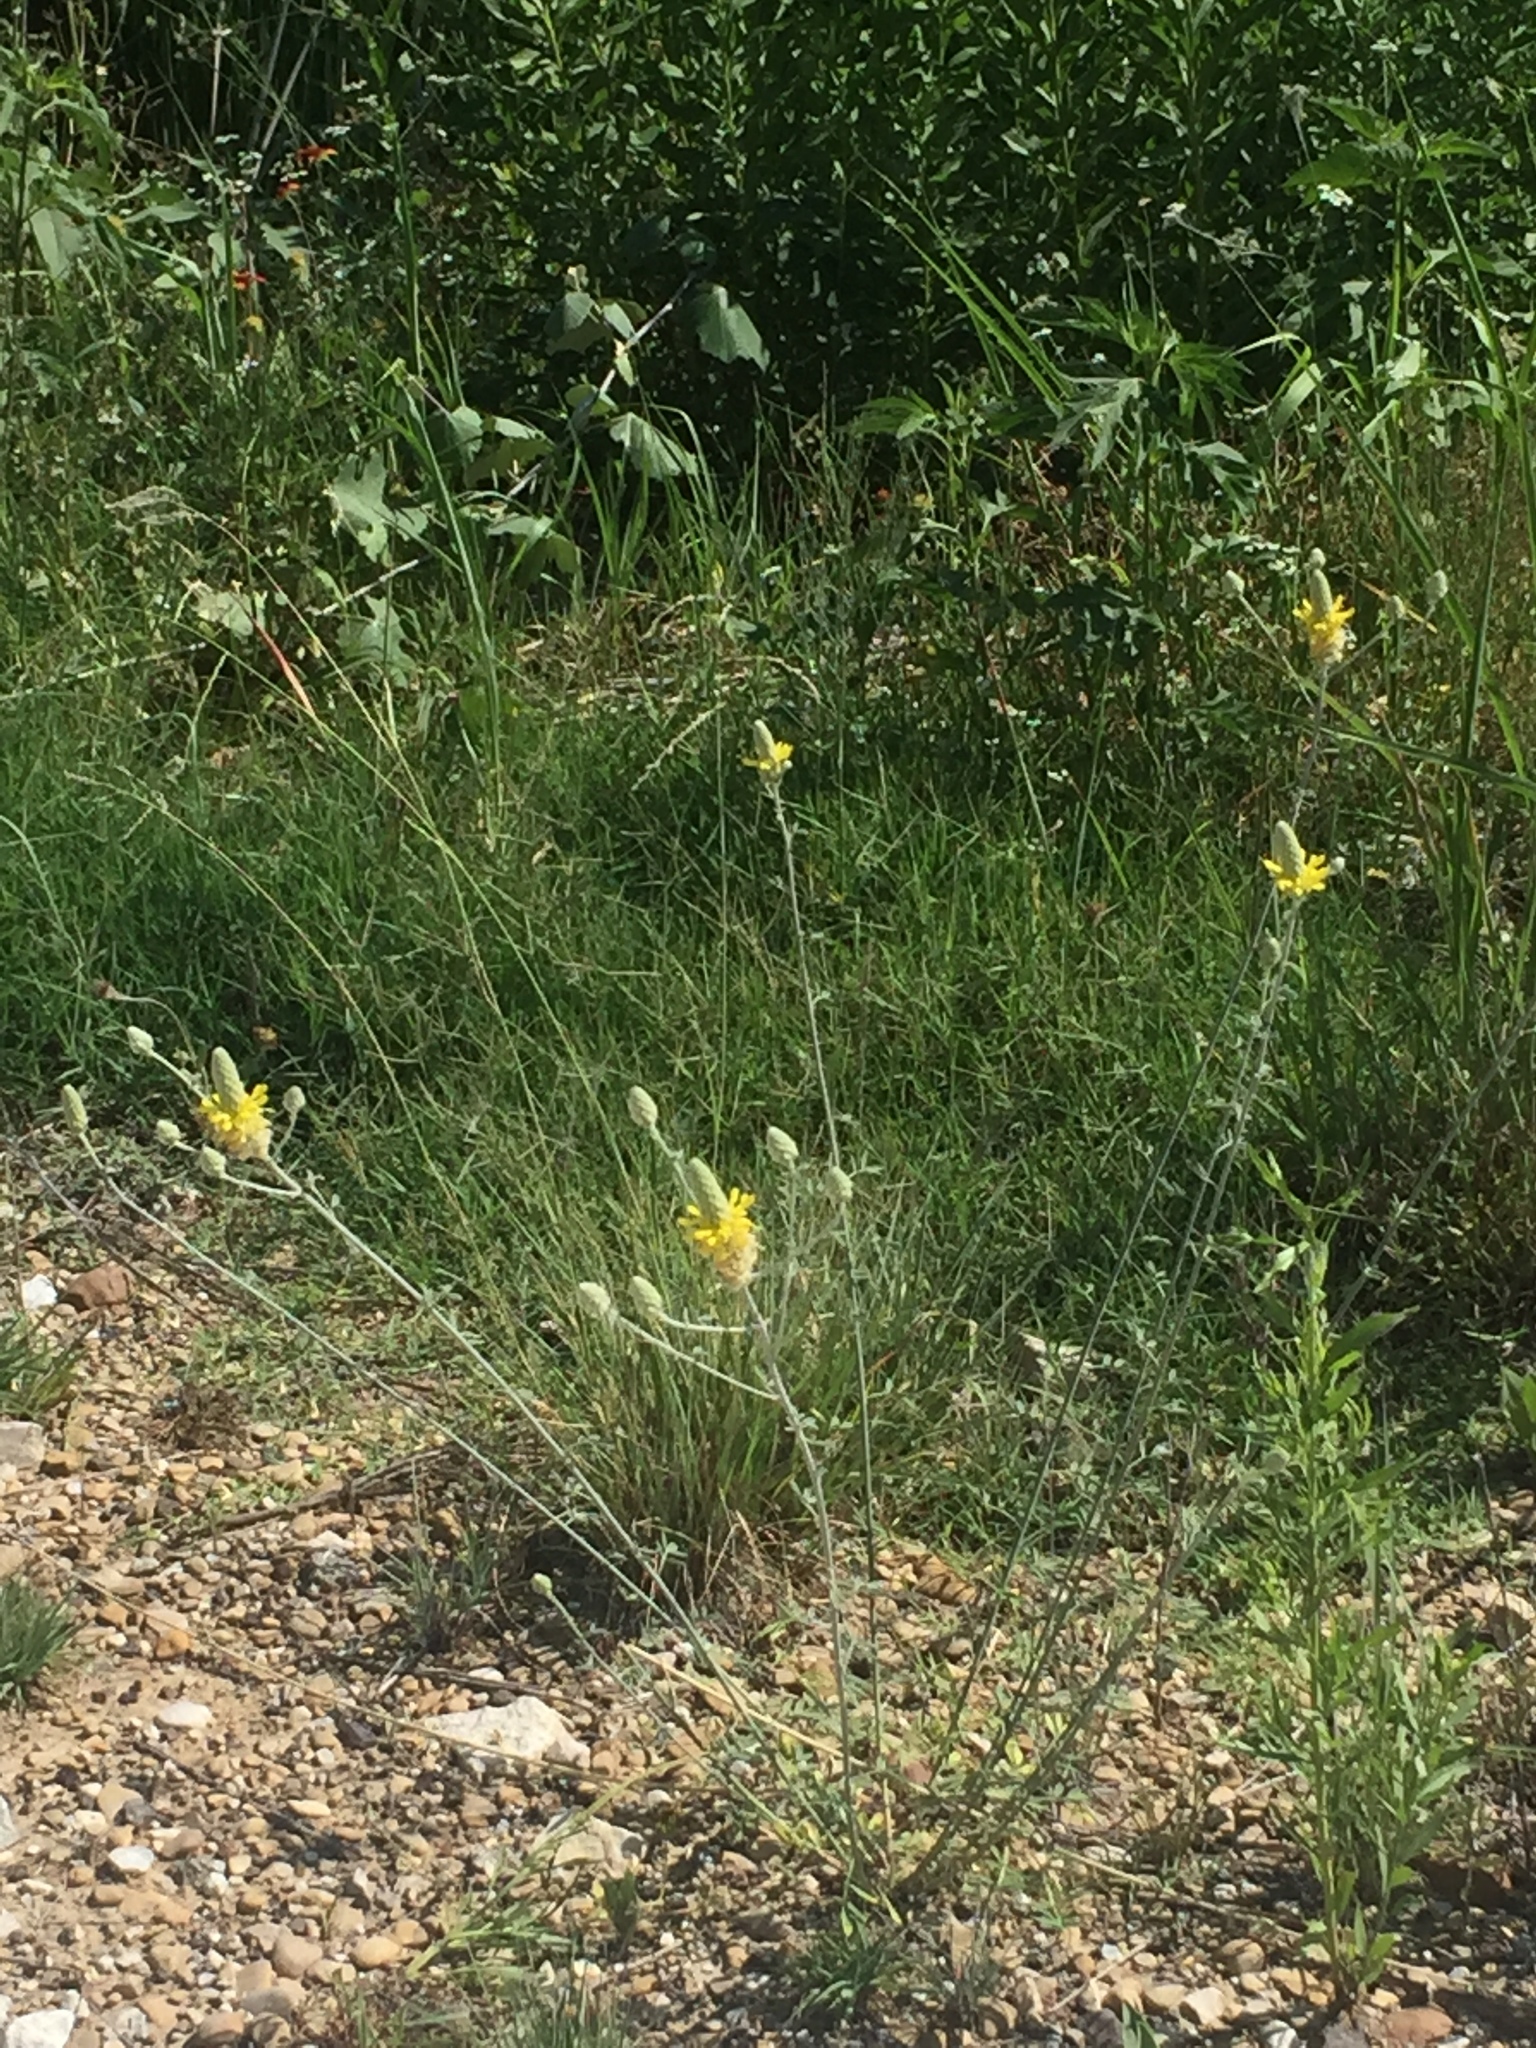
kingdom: Plantae
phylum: Tracheophyta
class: Magnoliopsida
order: Fabales
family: Fabaceae
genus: Dalea
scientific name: Dalea aurea
